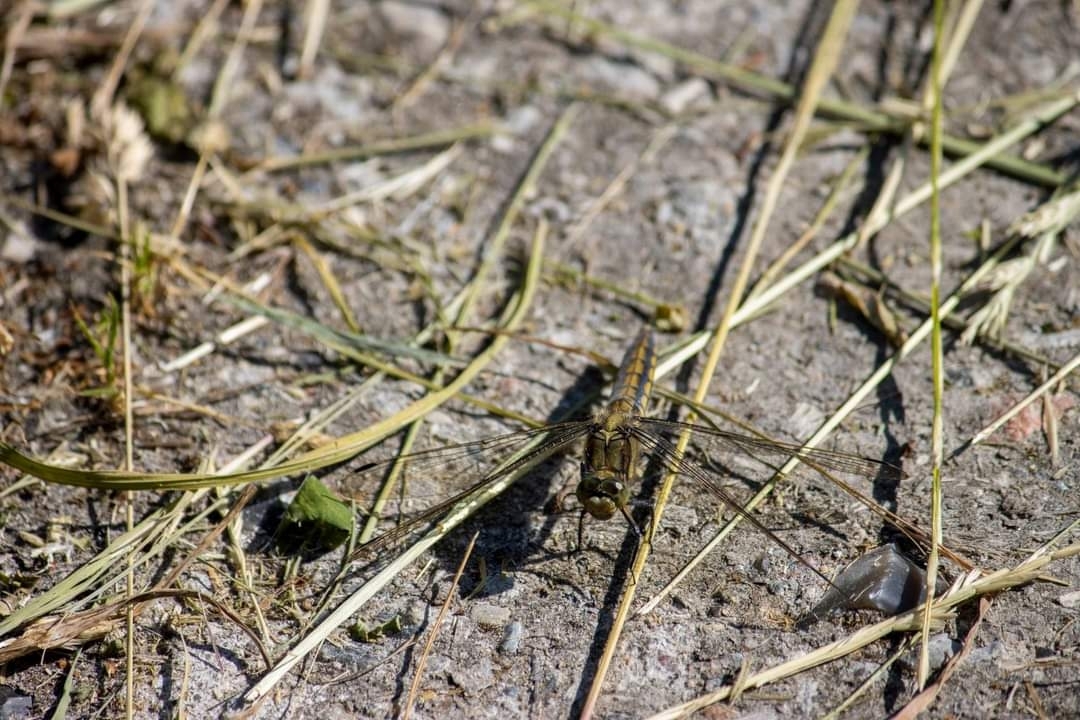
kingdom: Animalia
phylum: Arthropoda
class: Insecta
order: Odonata
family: Libellulidae
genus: Orthetrum
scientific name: Orthetrum cancellatum
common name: Black-tailed skimmer
